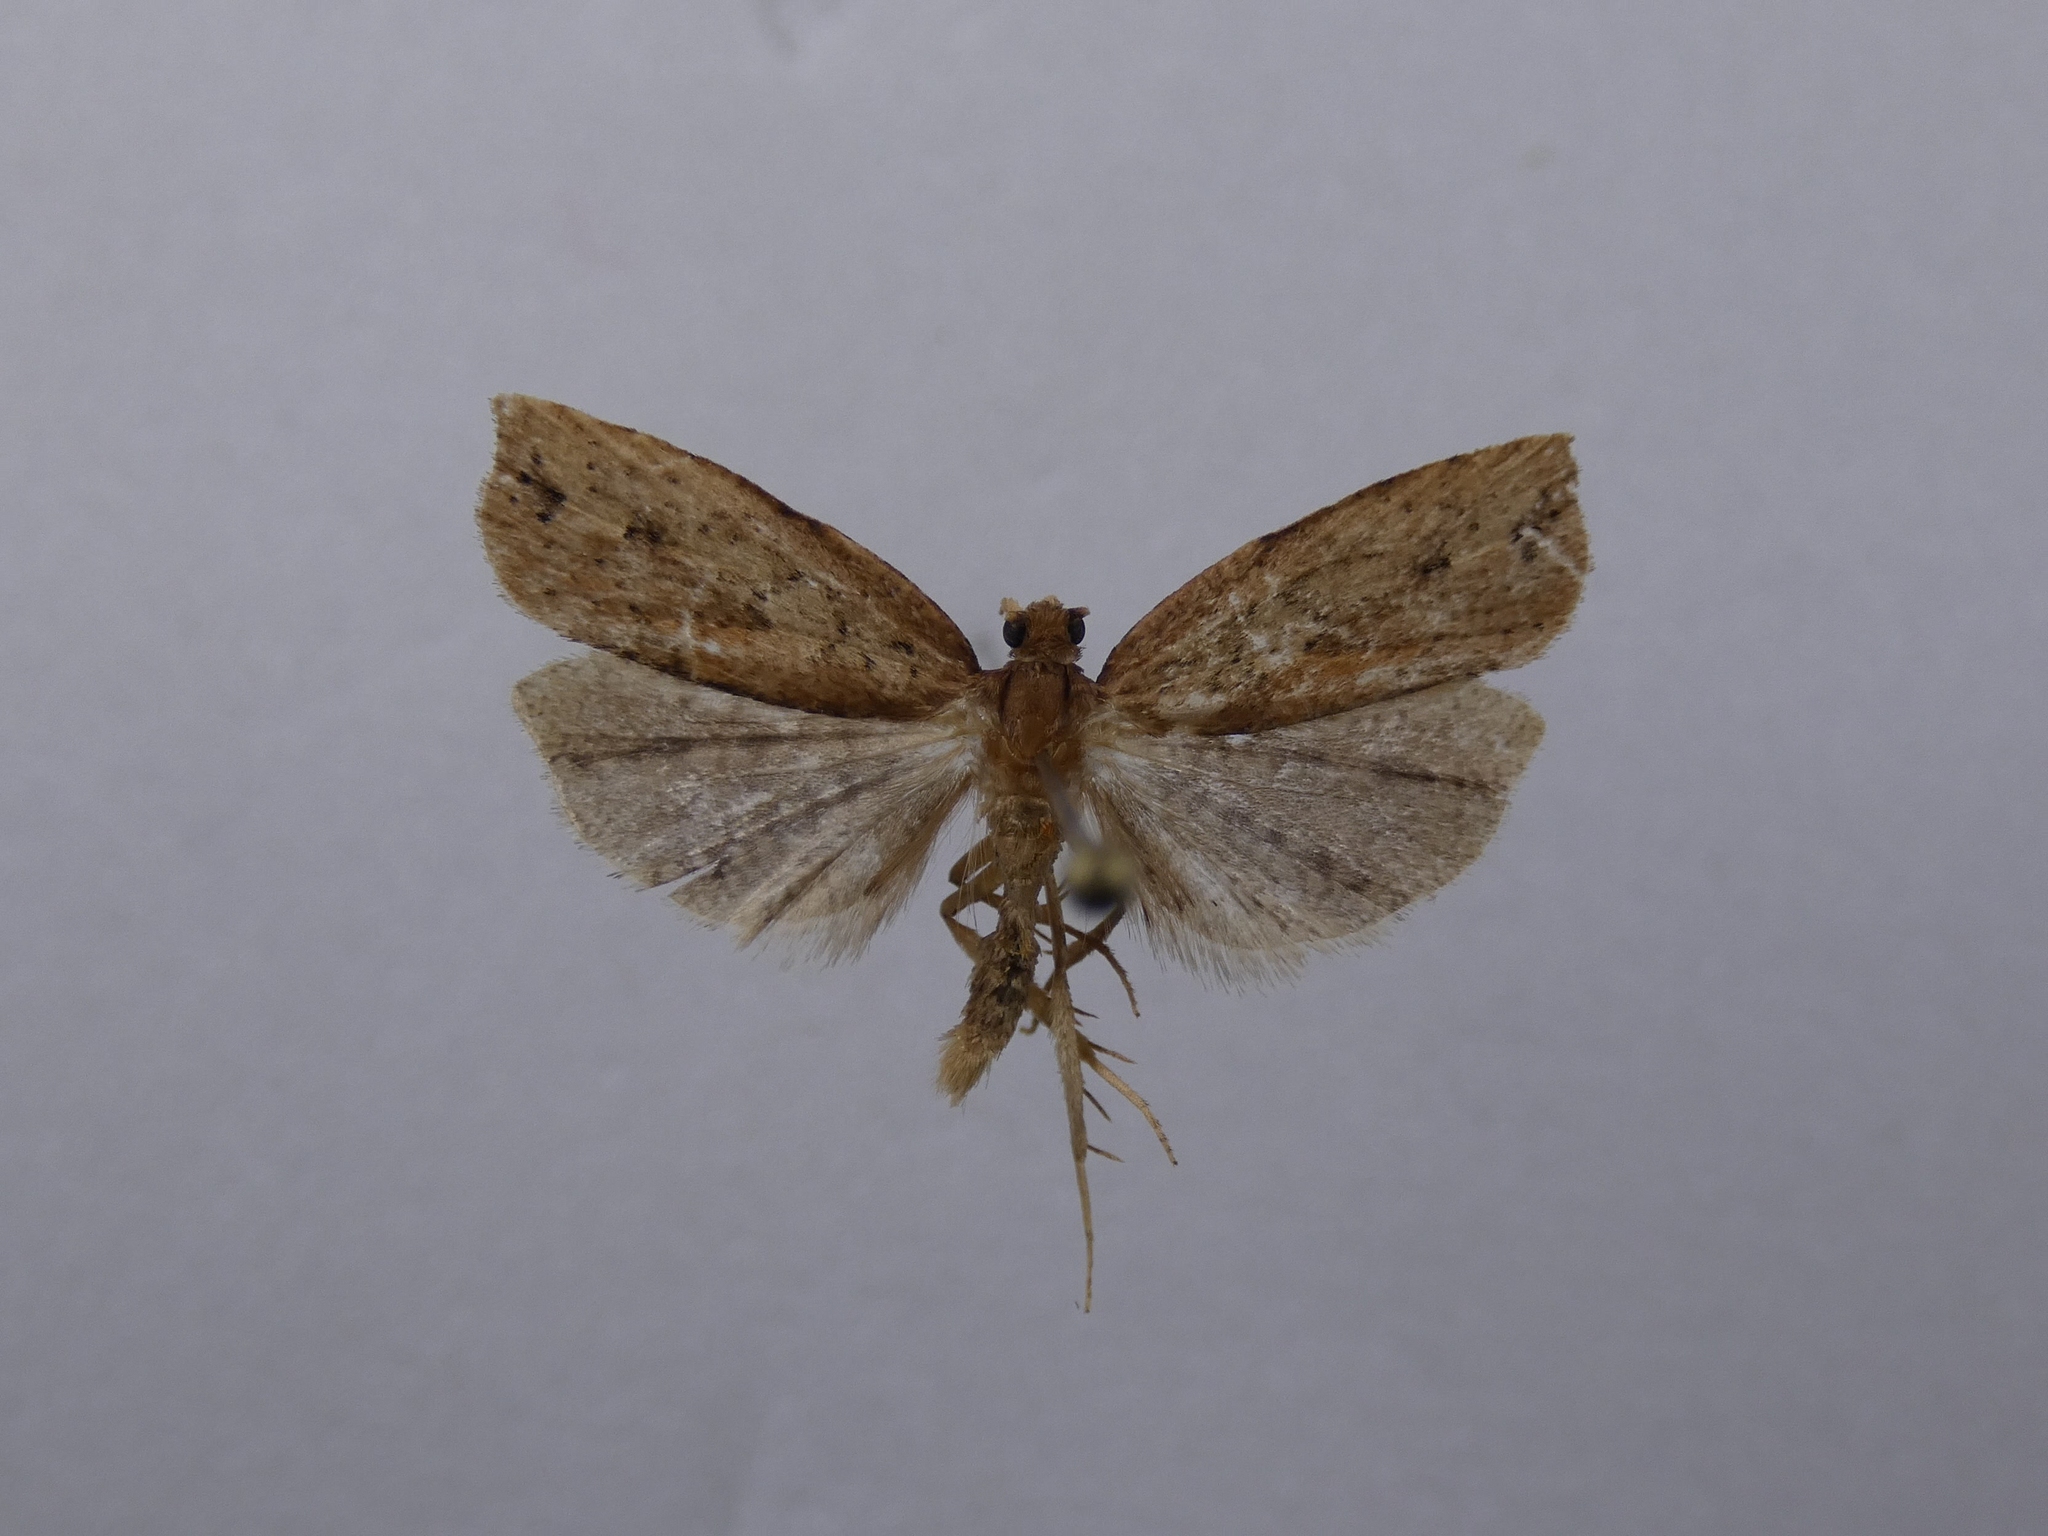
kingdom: Animalia
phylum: Arthropoda
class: Insecta
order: Lepidoptera
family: Tortricidae
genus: Planotortrix
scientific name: Planotortrix notophaea
